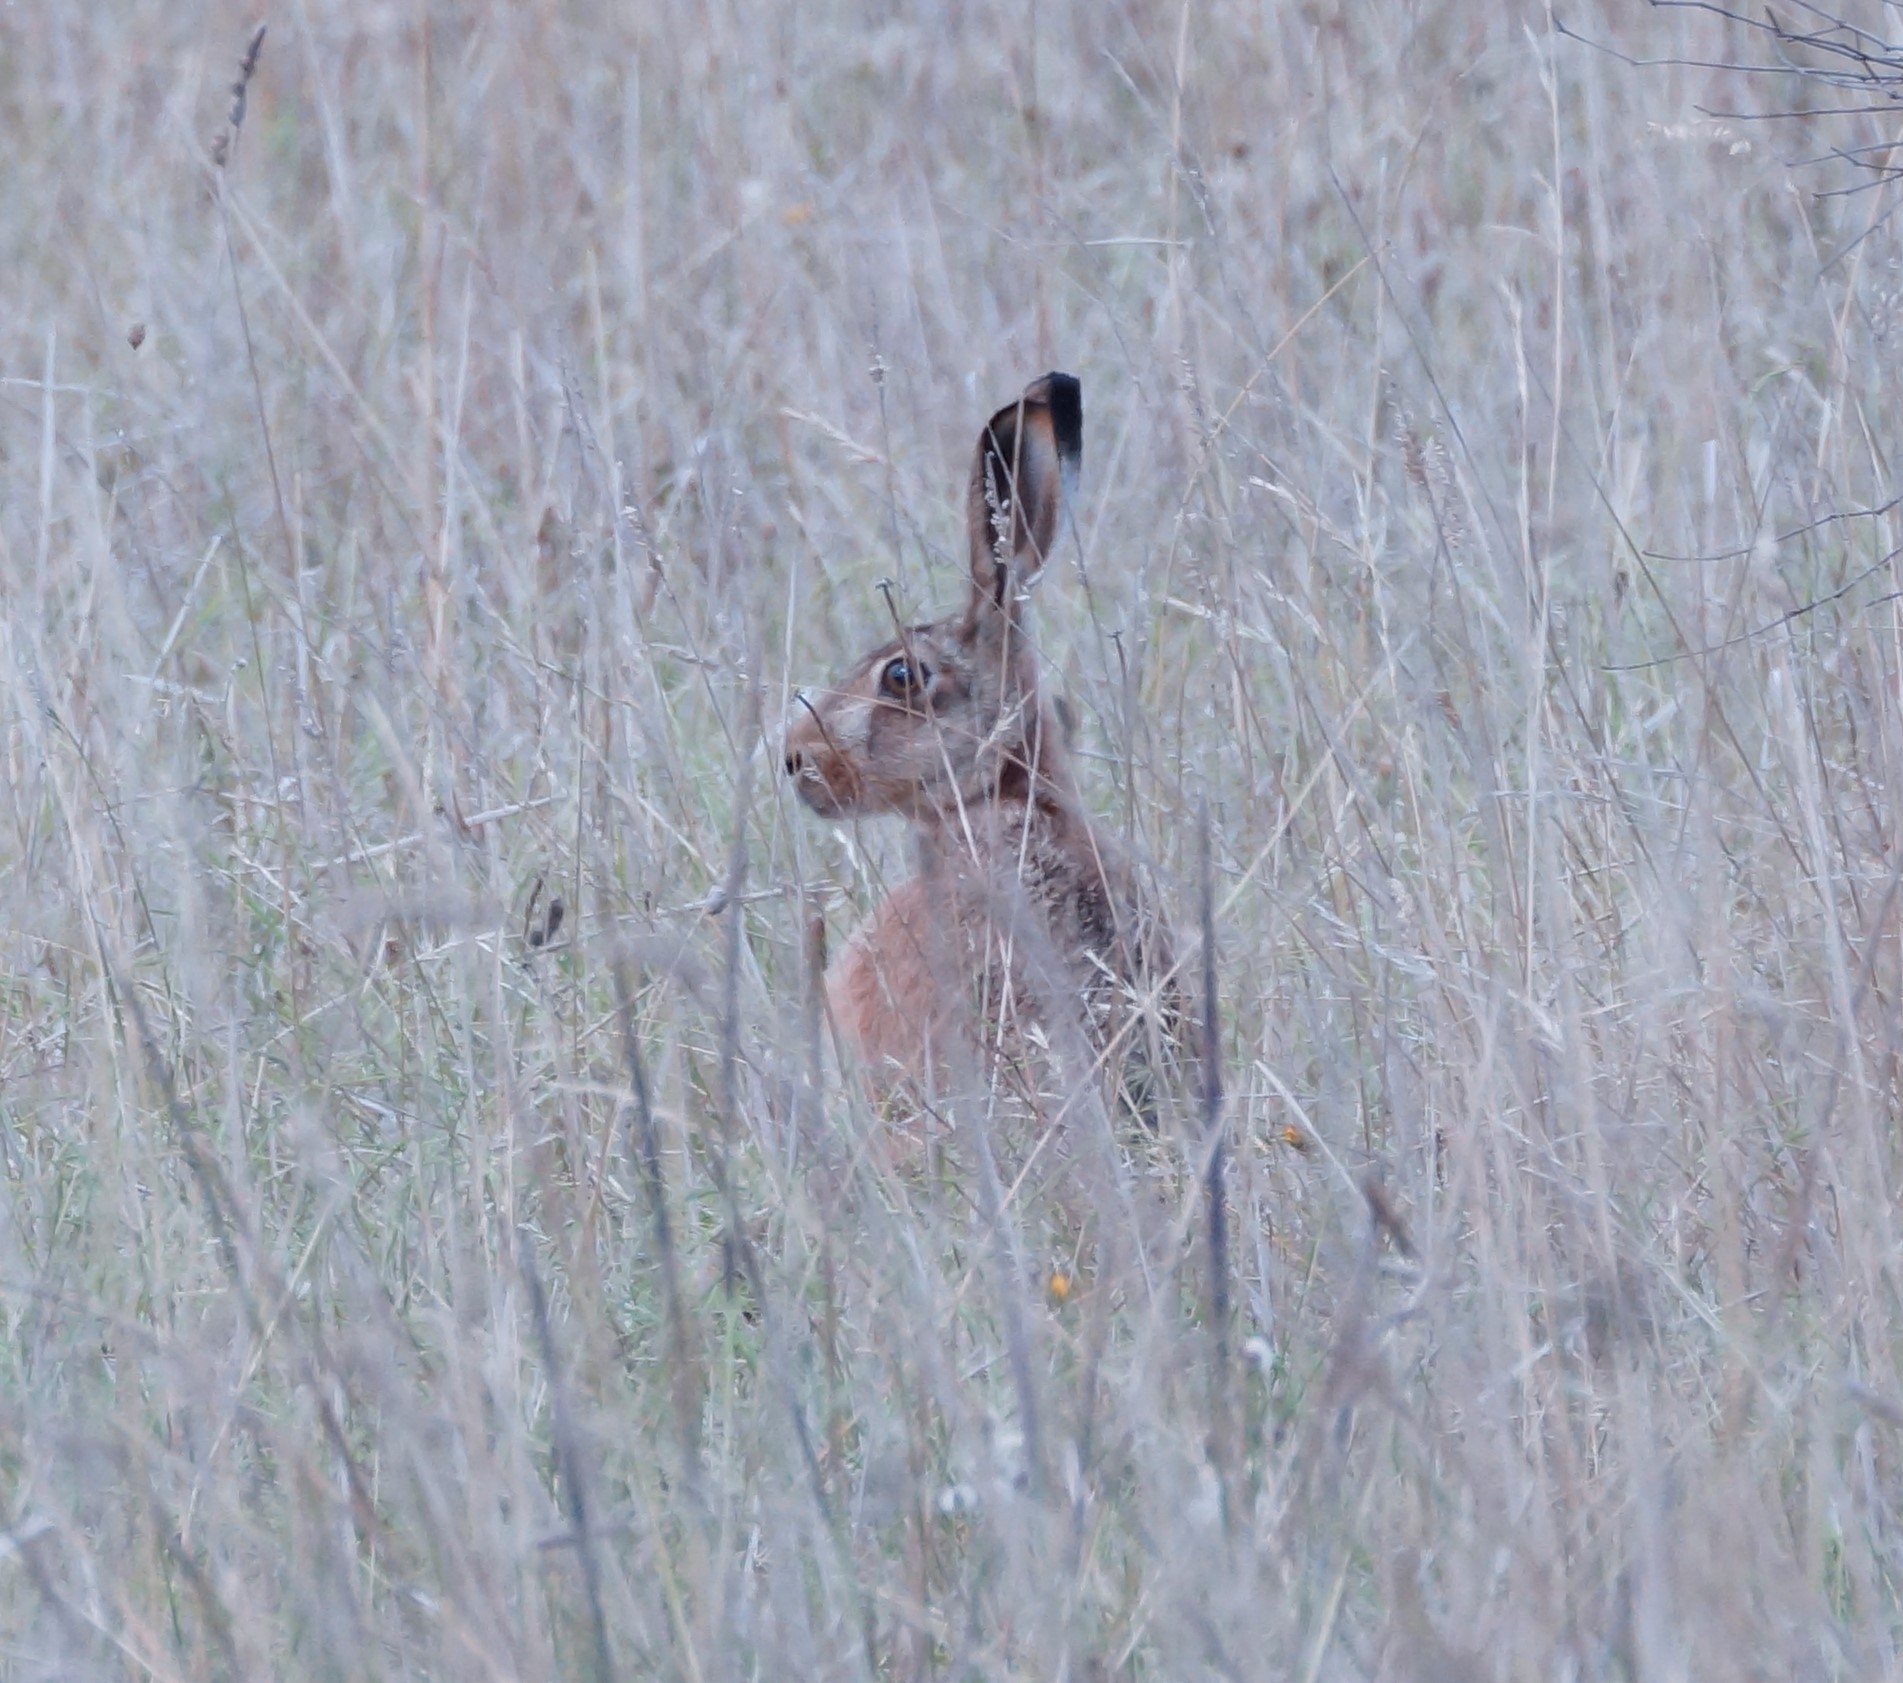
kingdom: Animalia
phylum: Chordata
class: Mammalia
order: Lagomorpha
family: Leporidae
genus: Lepus
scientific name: Lepus europaeus
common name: European hare
